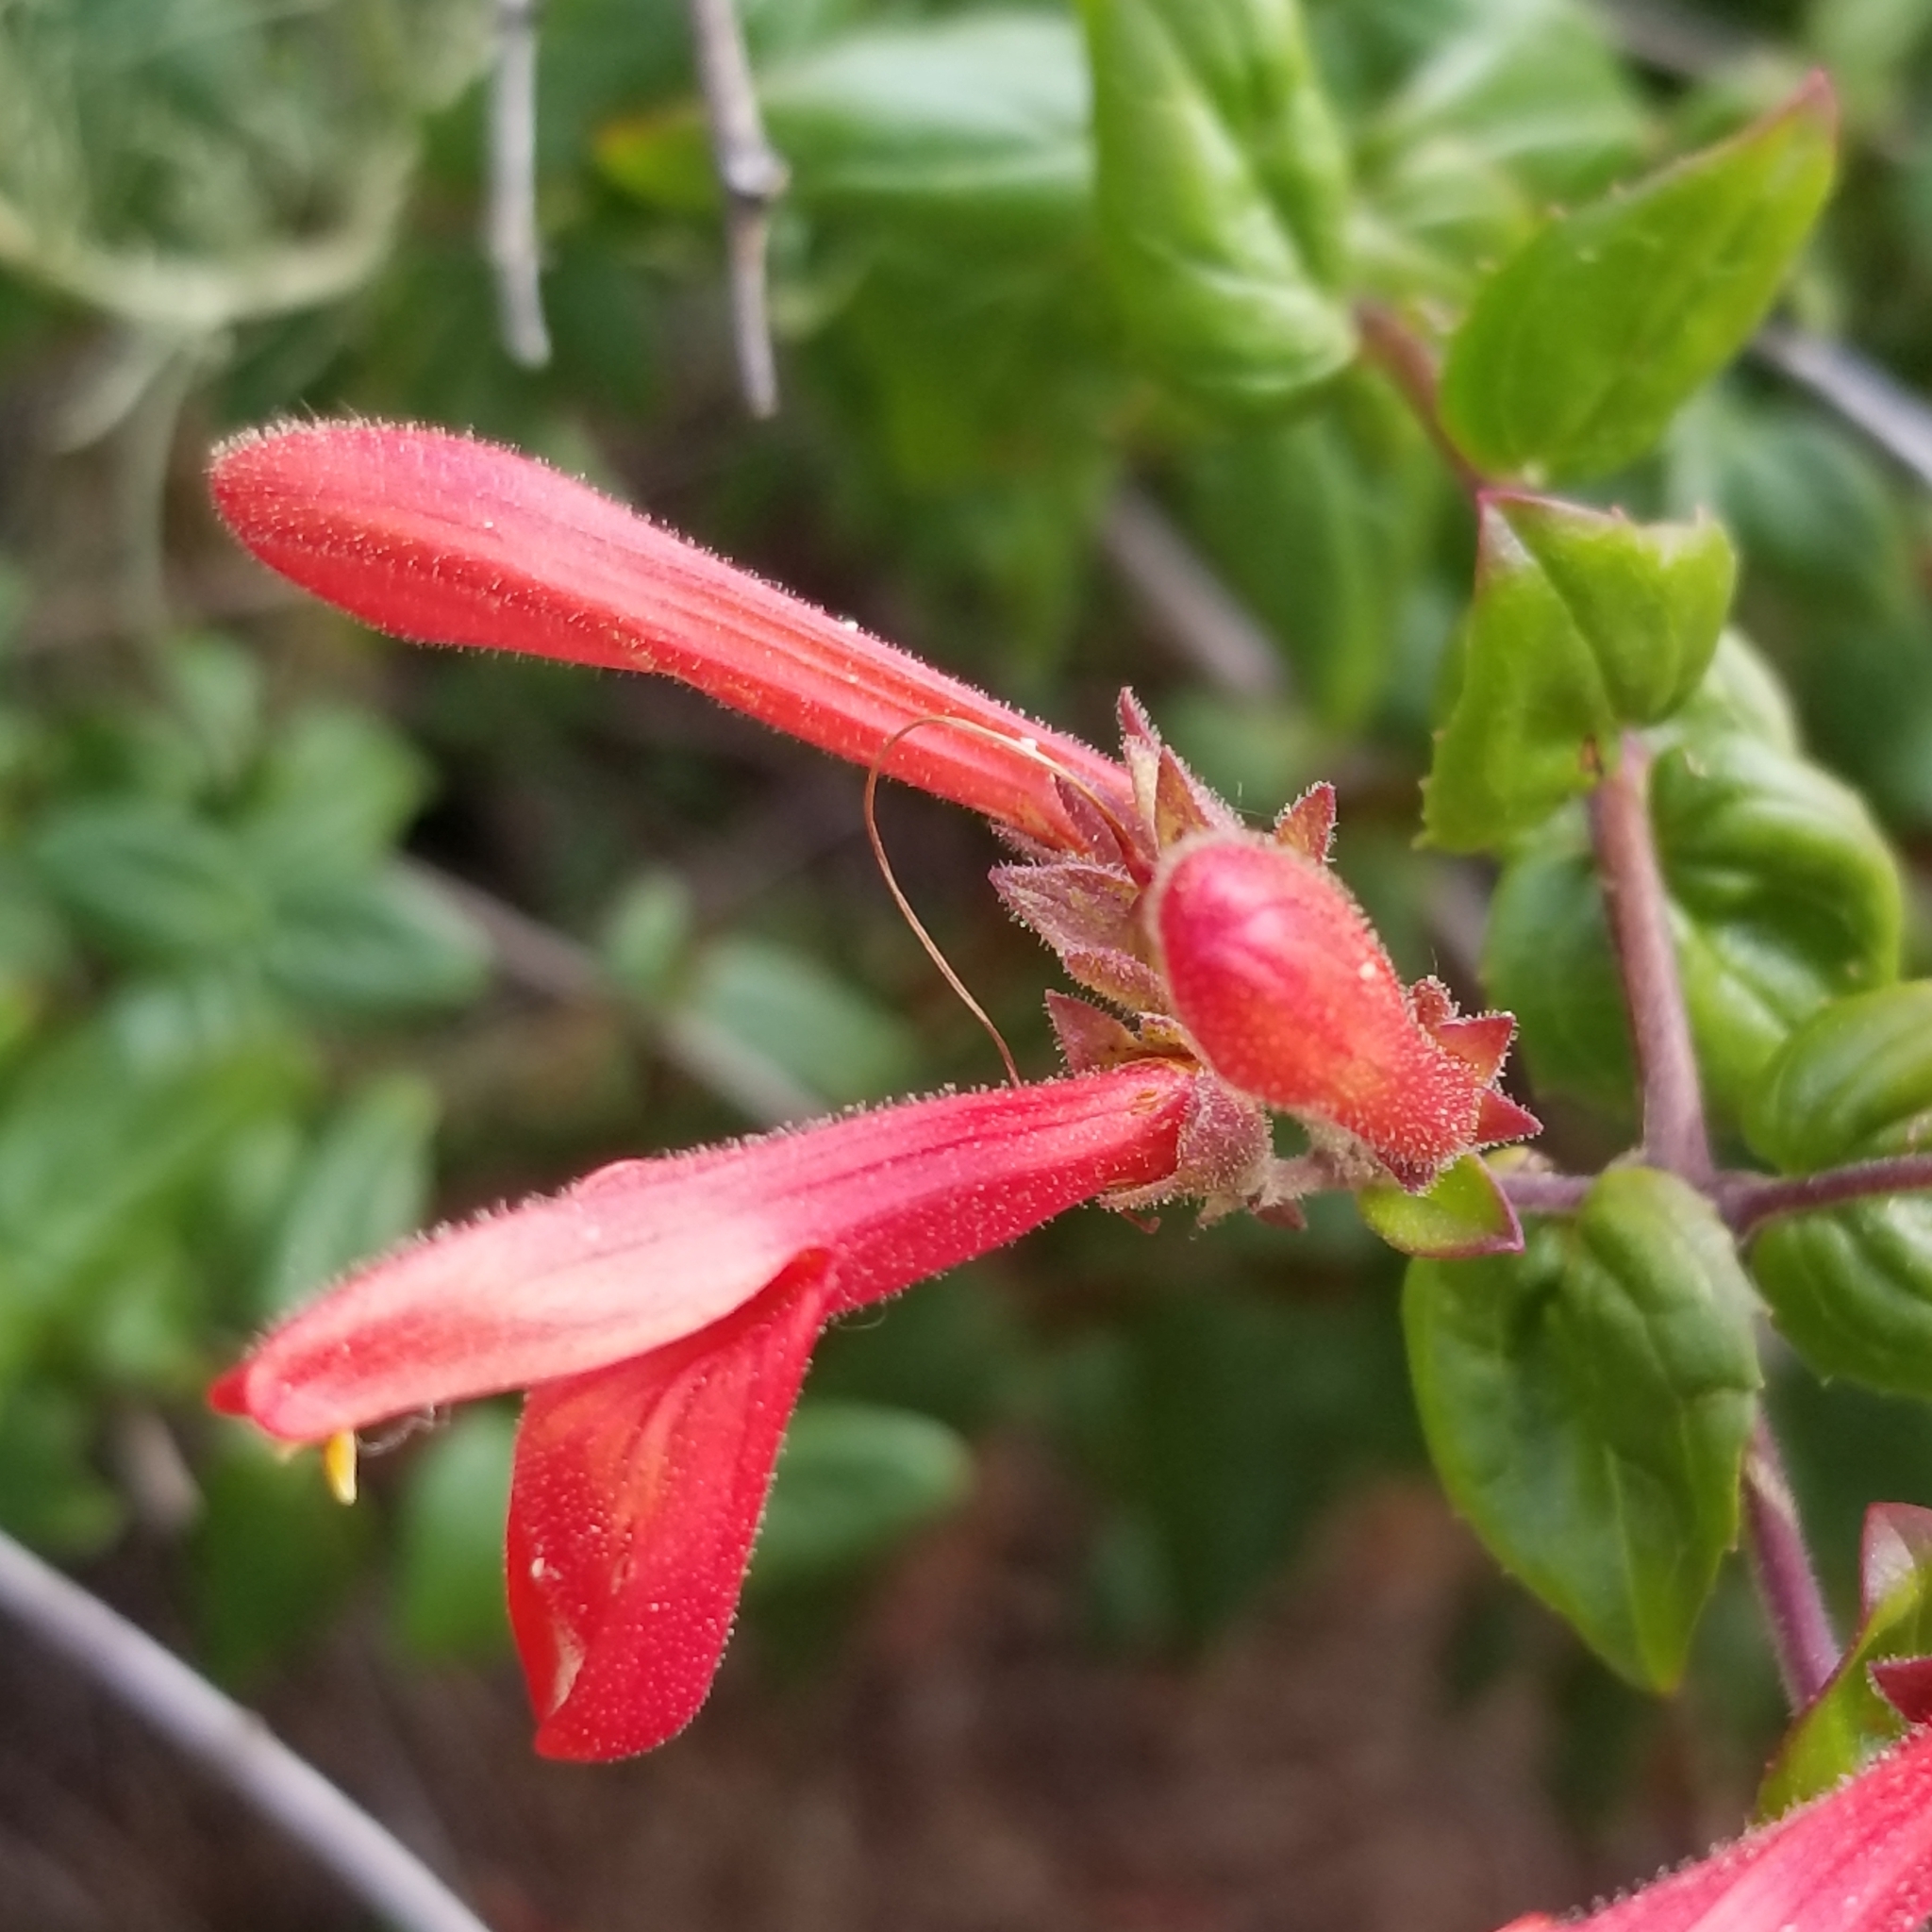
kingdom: Plantae
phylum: Tracheophyta
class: Magnoliopsida
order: Lamiales
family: Plantaginaceae
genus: Keckiella
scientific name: Keckiella cordifolia
